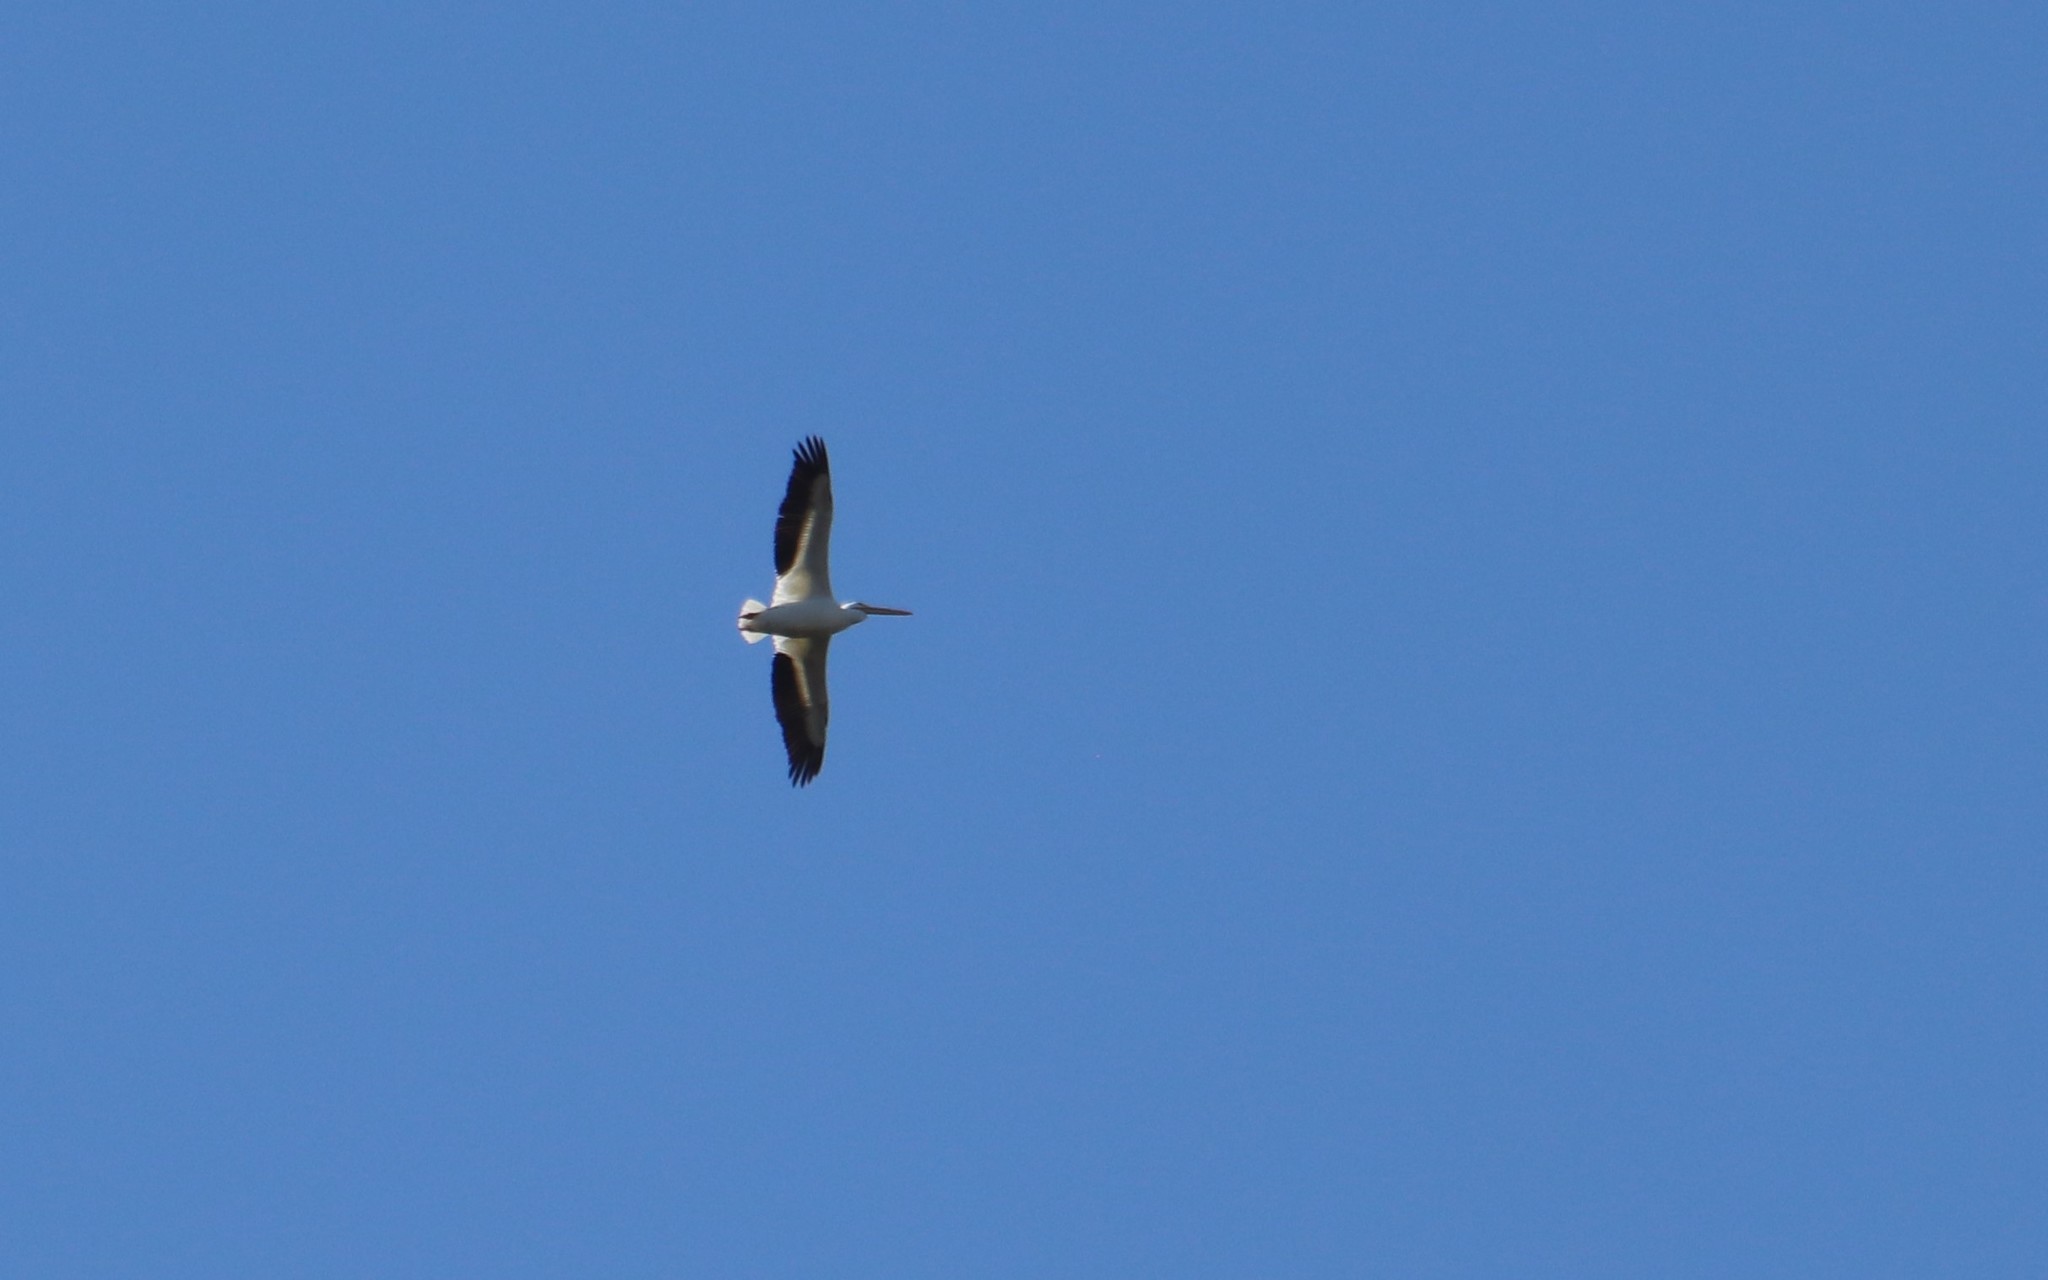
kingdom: Animalia
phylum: Chordata
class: Aves
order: Pelecaniformes
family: Pelecanidae
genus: Pelecanus
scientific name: Pelecanus erythrorhynchos
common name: American white pelican
